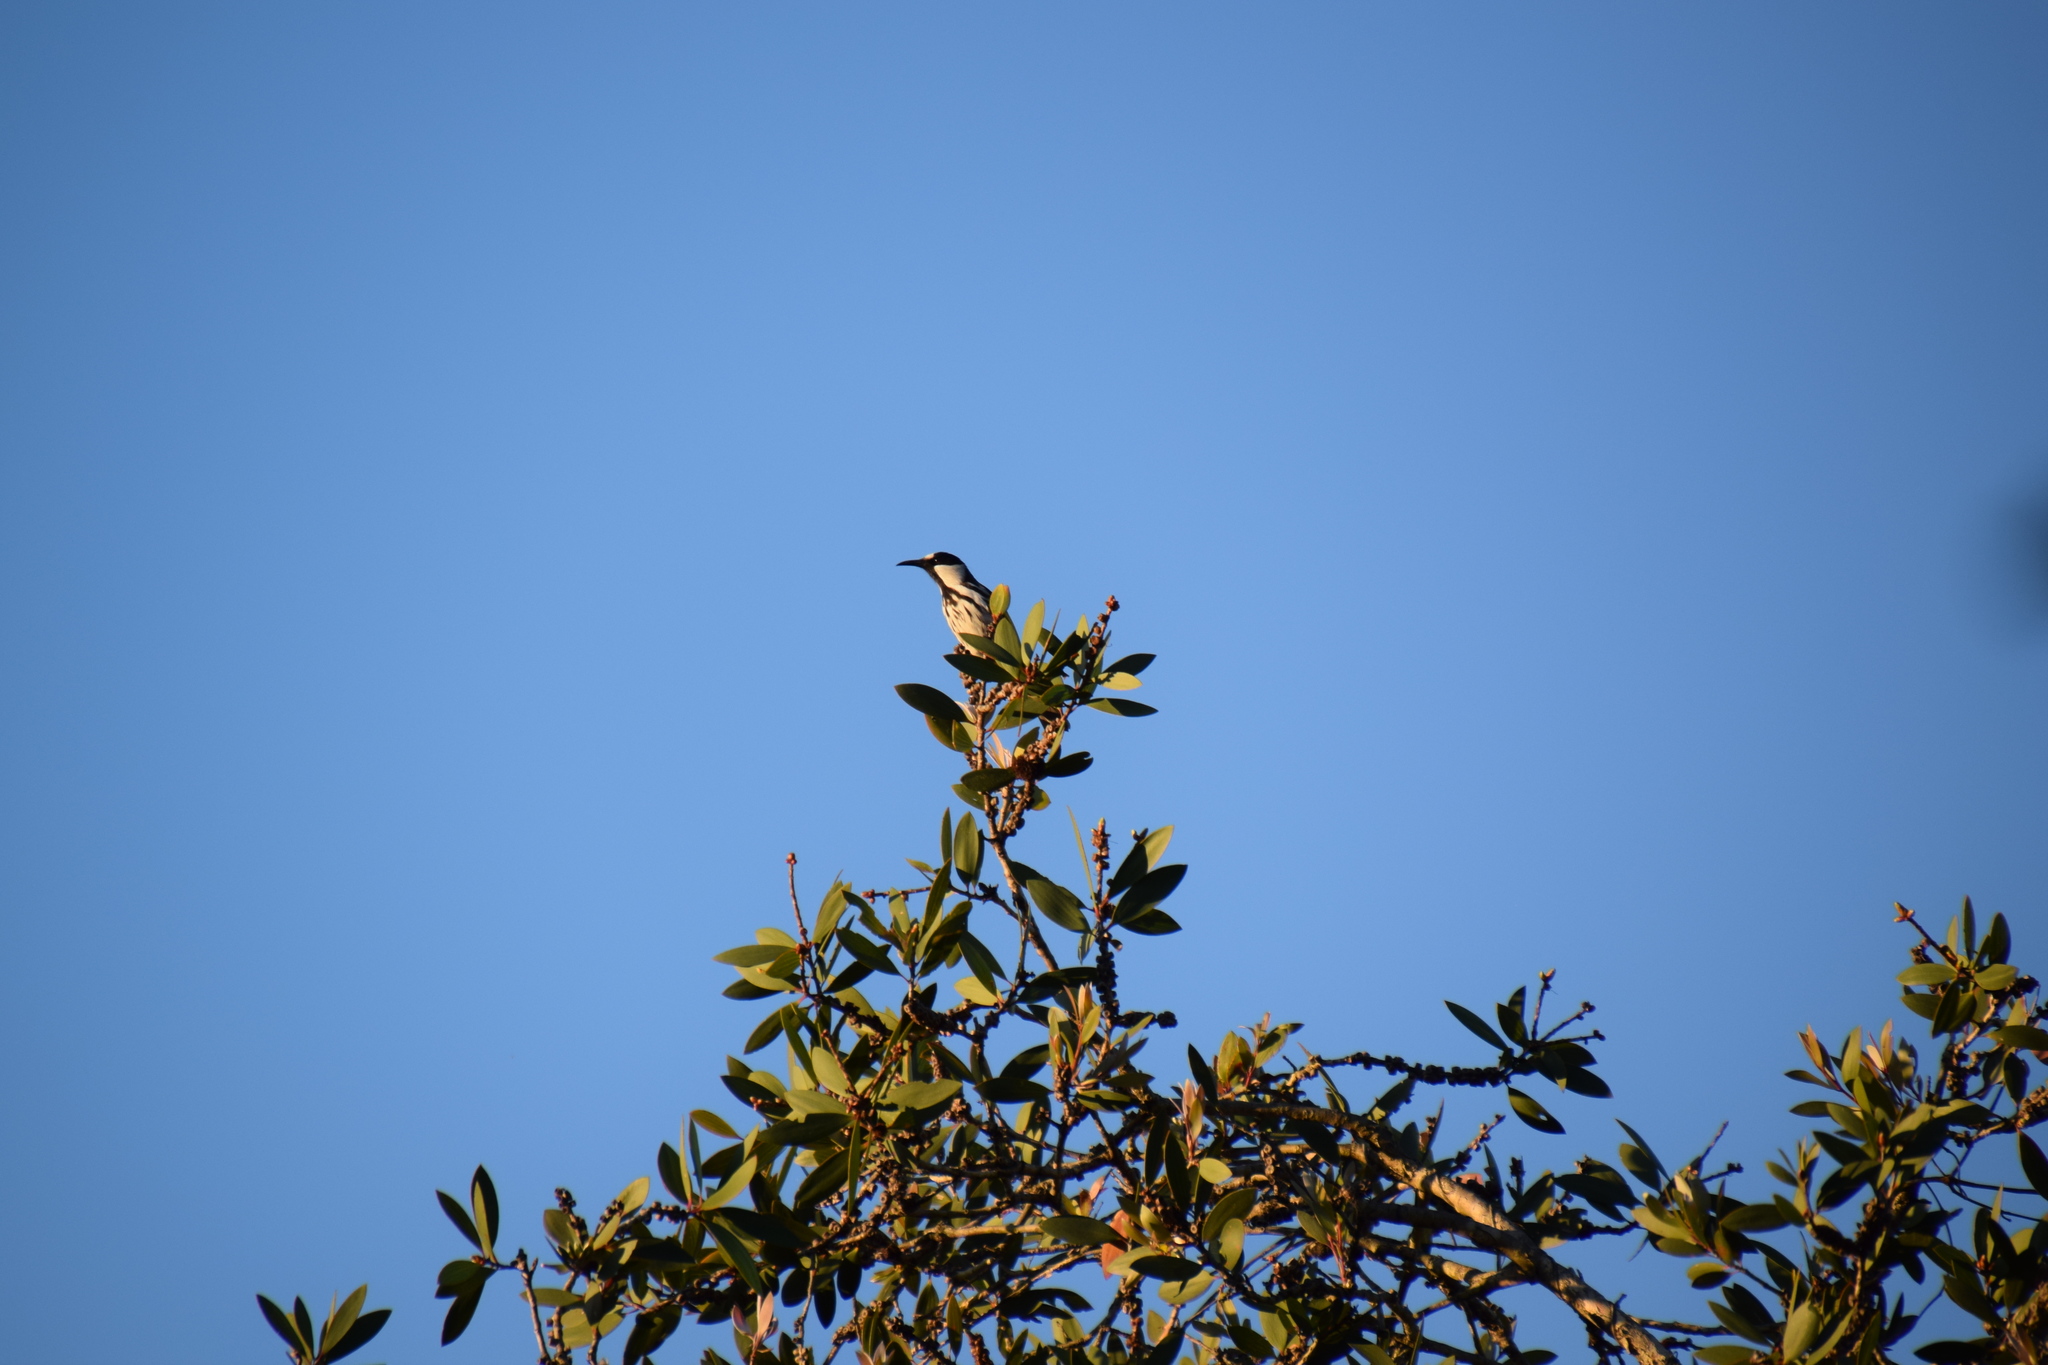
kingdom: Animalia
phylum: Chordata
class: Aves
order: Passeriformes
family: Meliphagidae
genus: Phylidonyris
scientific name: Phylidonyris niger
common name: White-cheeked honeyeater
